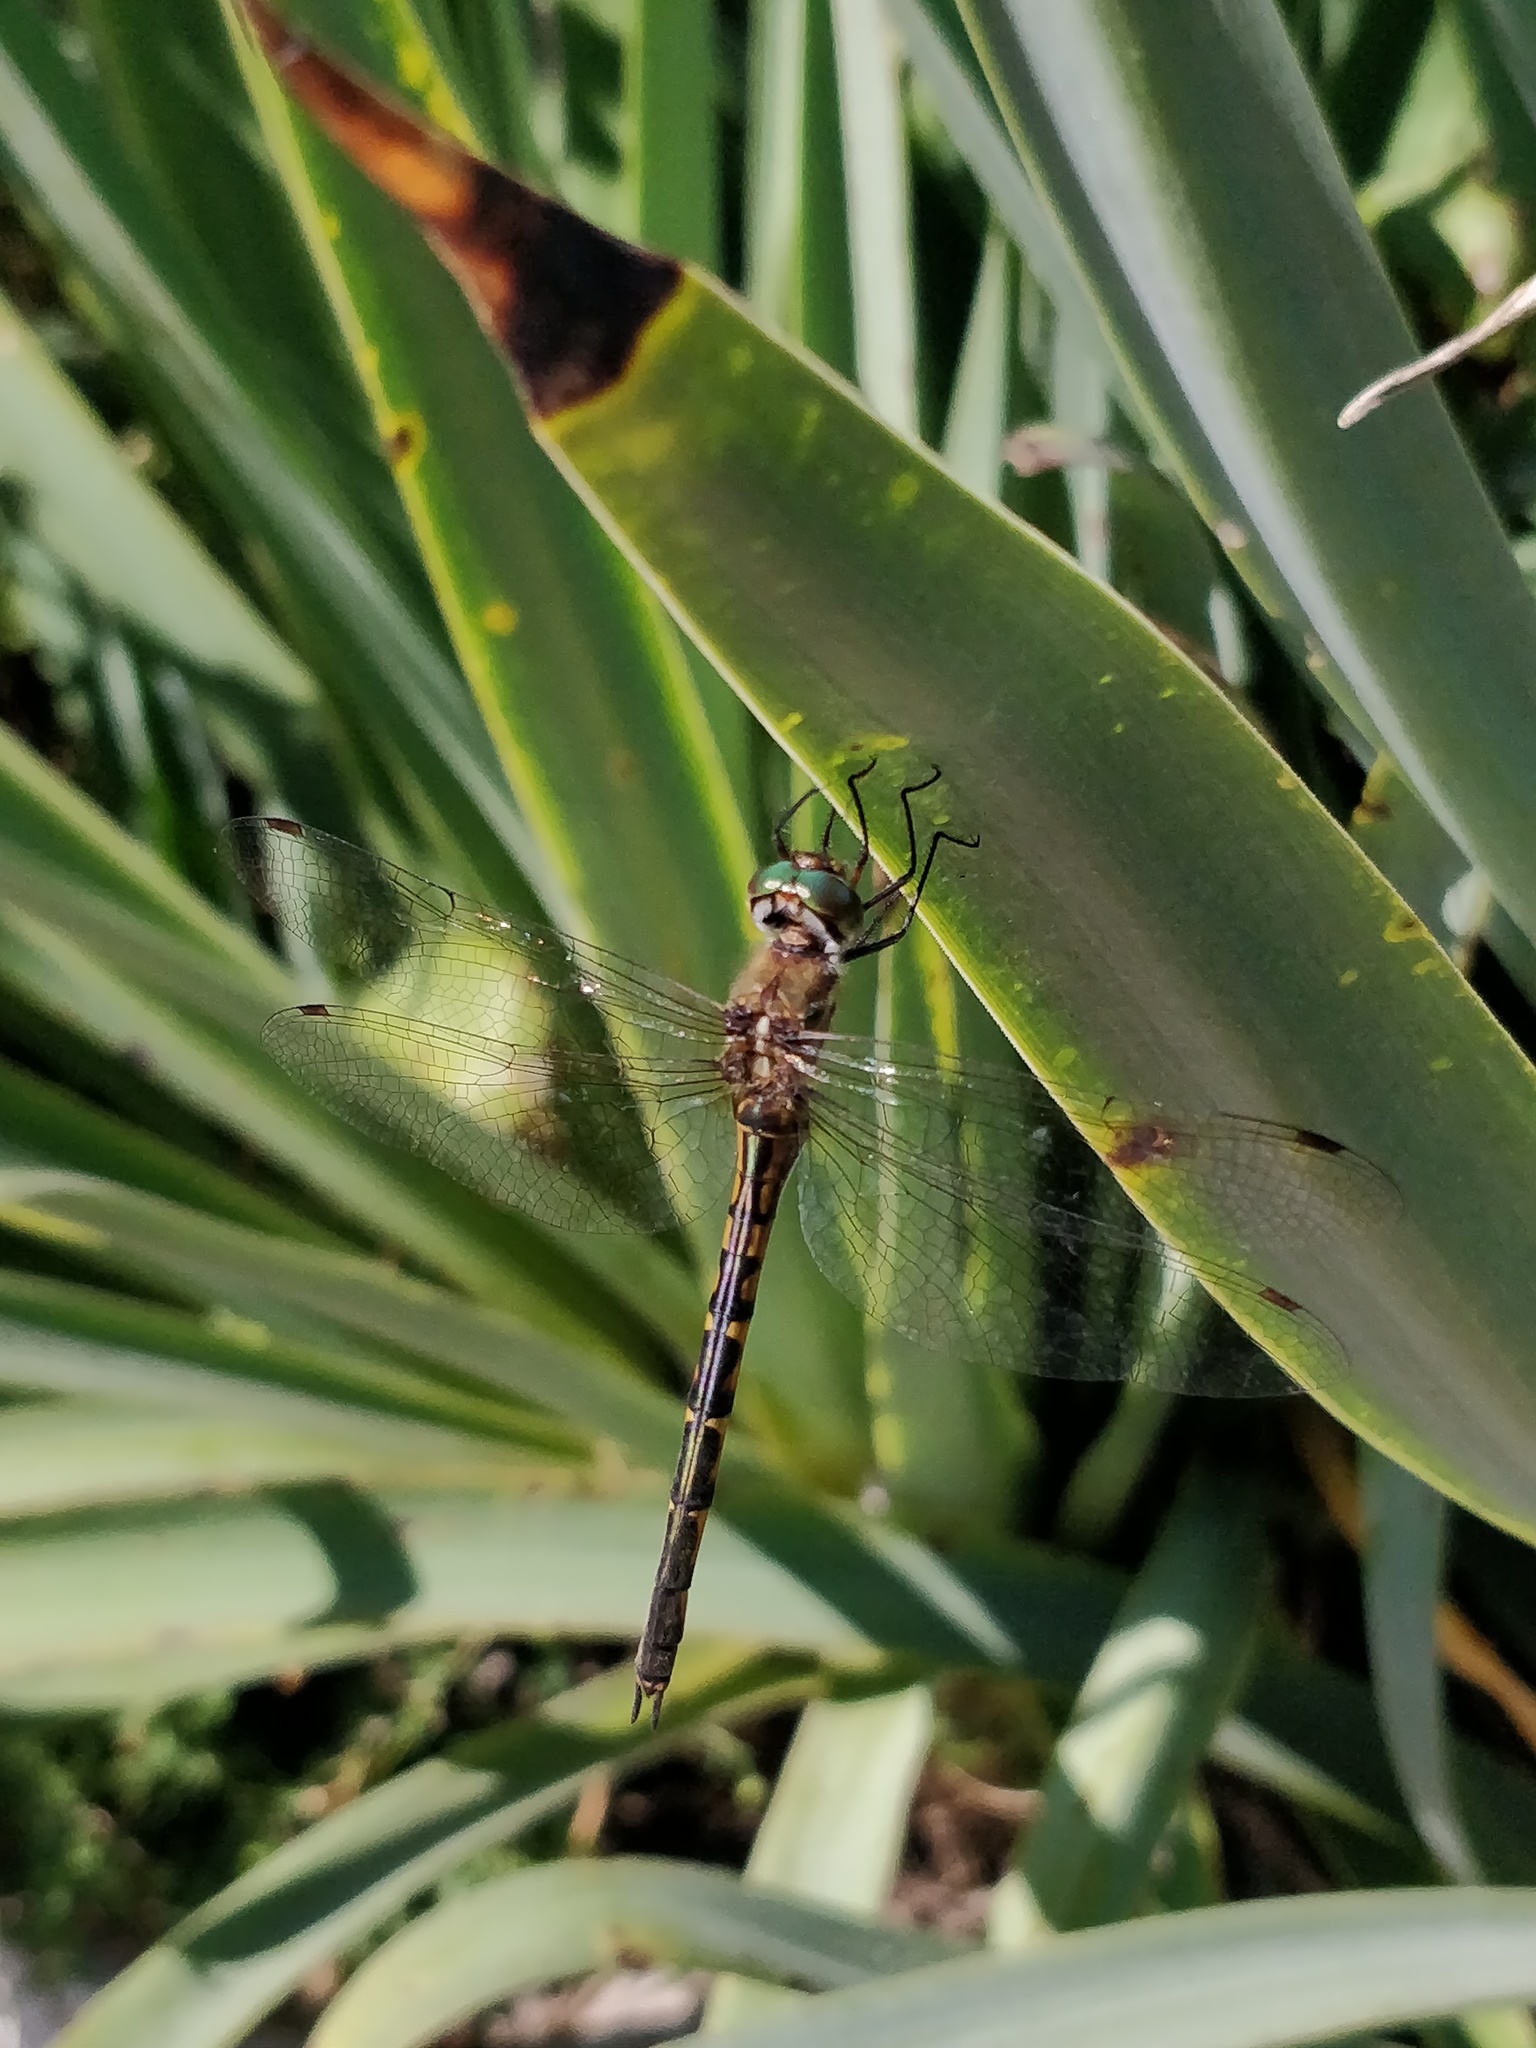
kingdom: Animalia
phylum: Arthropoda
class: Insecta
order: Odonata
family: Corduliidae
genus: Hemicordulia
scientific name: Hemicordulia australiae
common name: Sentry dragonfly
